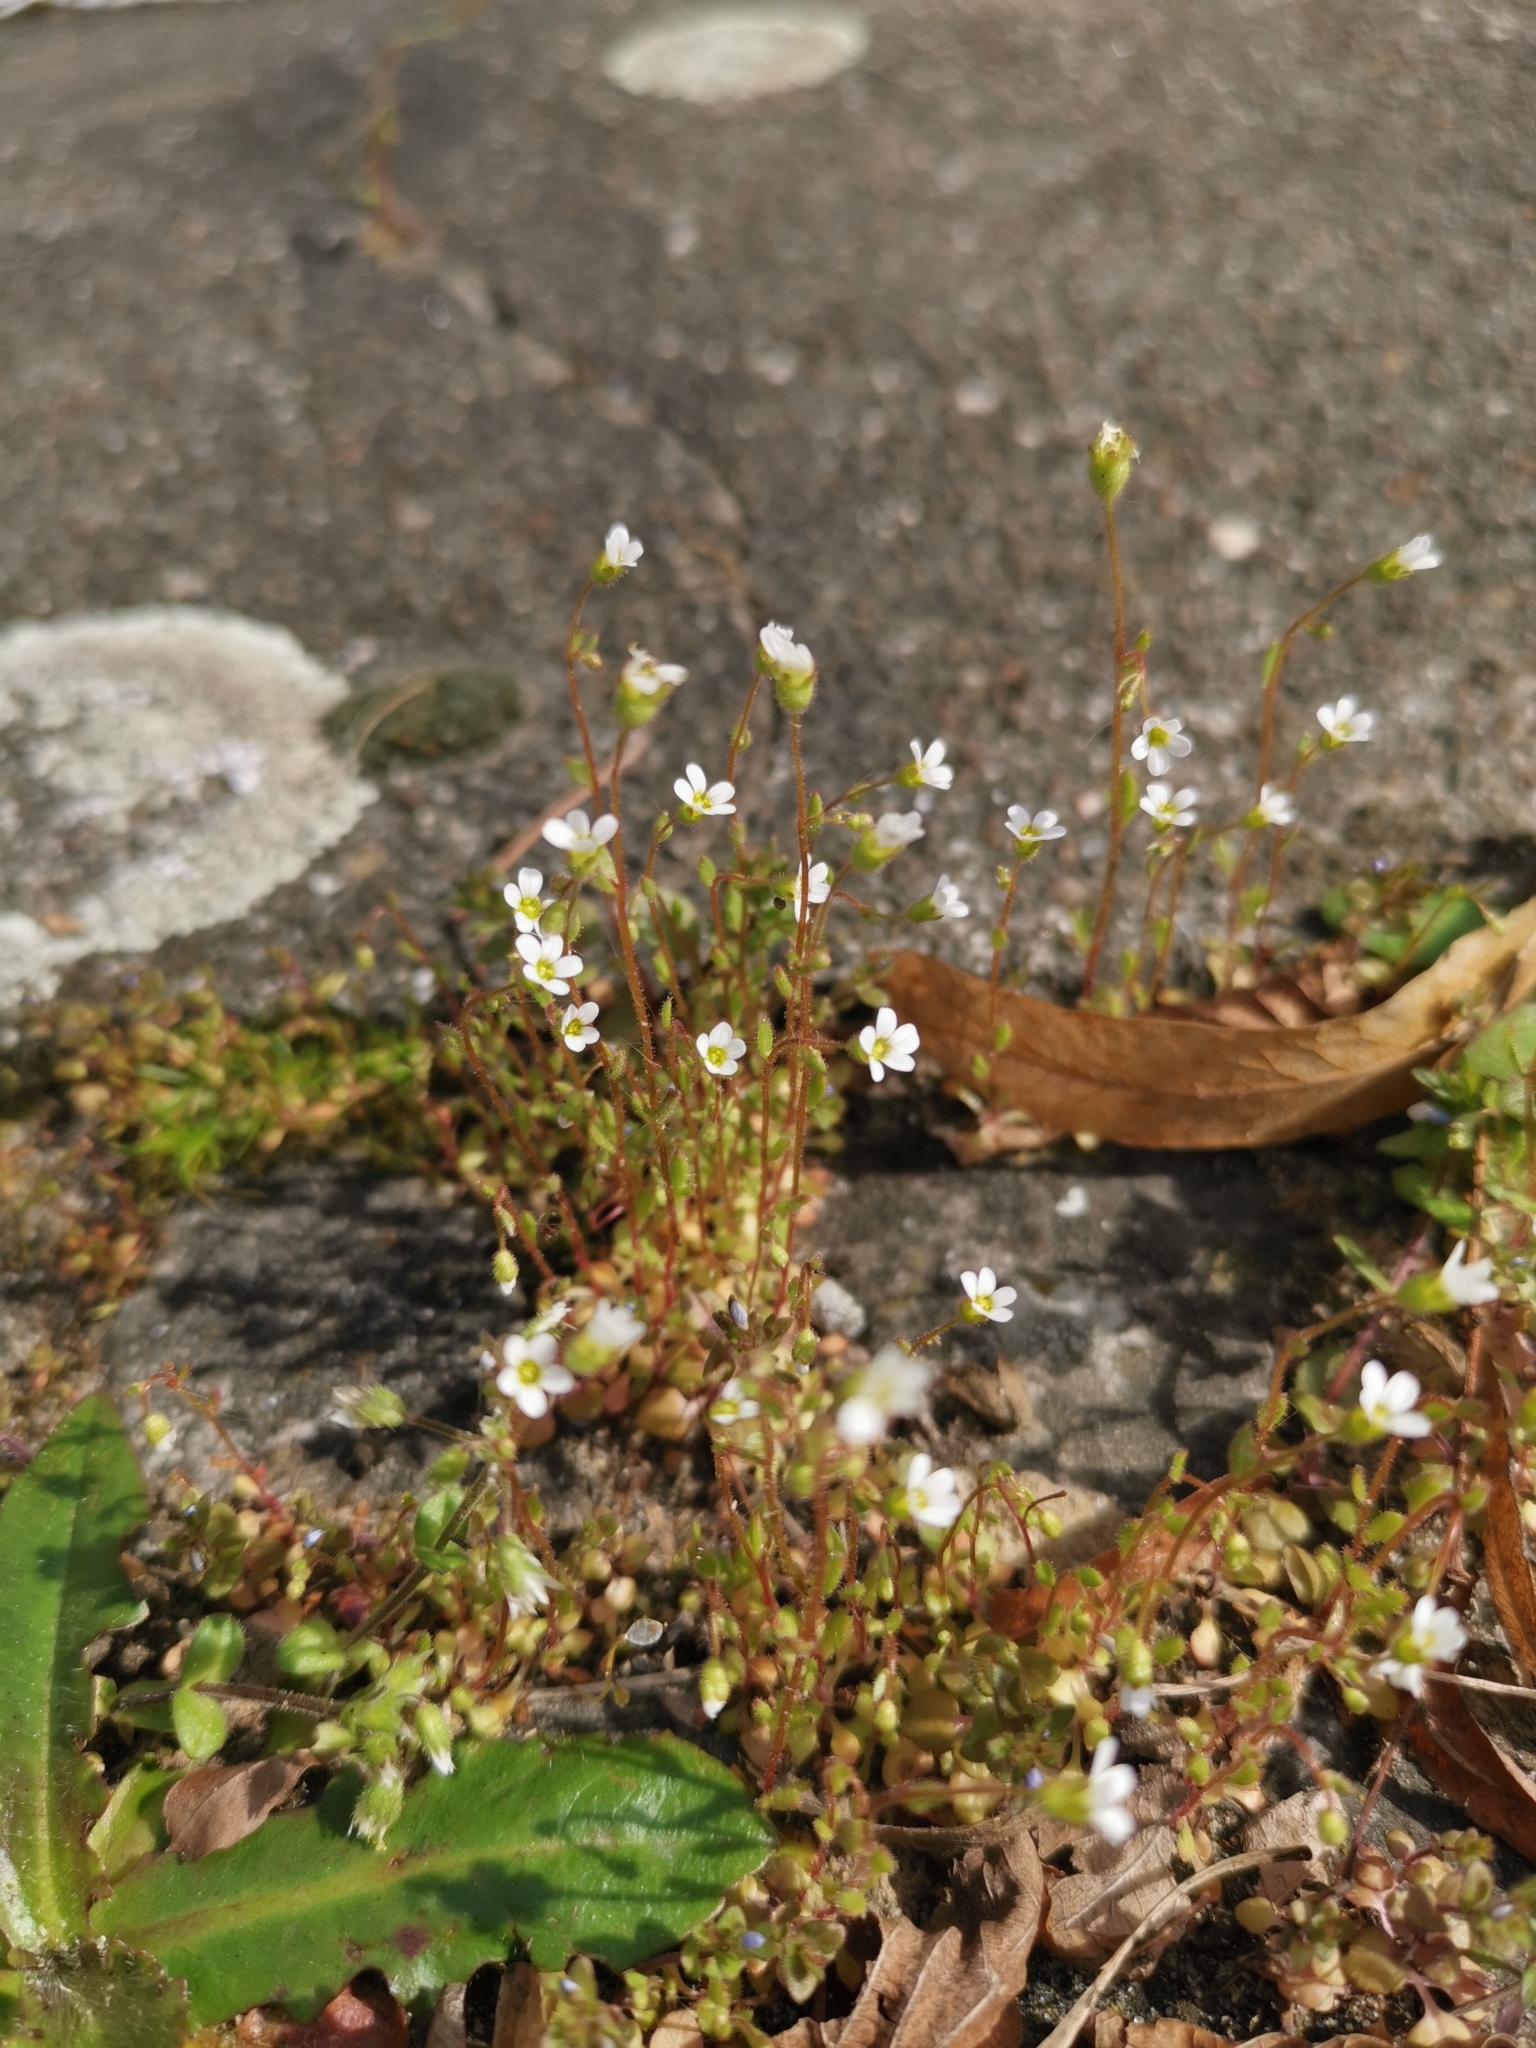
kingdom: Plantae
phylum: Tracheophyta
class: Magnoliopsida
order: Saxifragales
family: Saxifragaceae
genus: Saxifraga
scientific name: Saxifraga tridactylites
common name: Rue-leaved saxifrage
